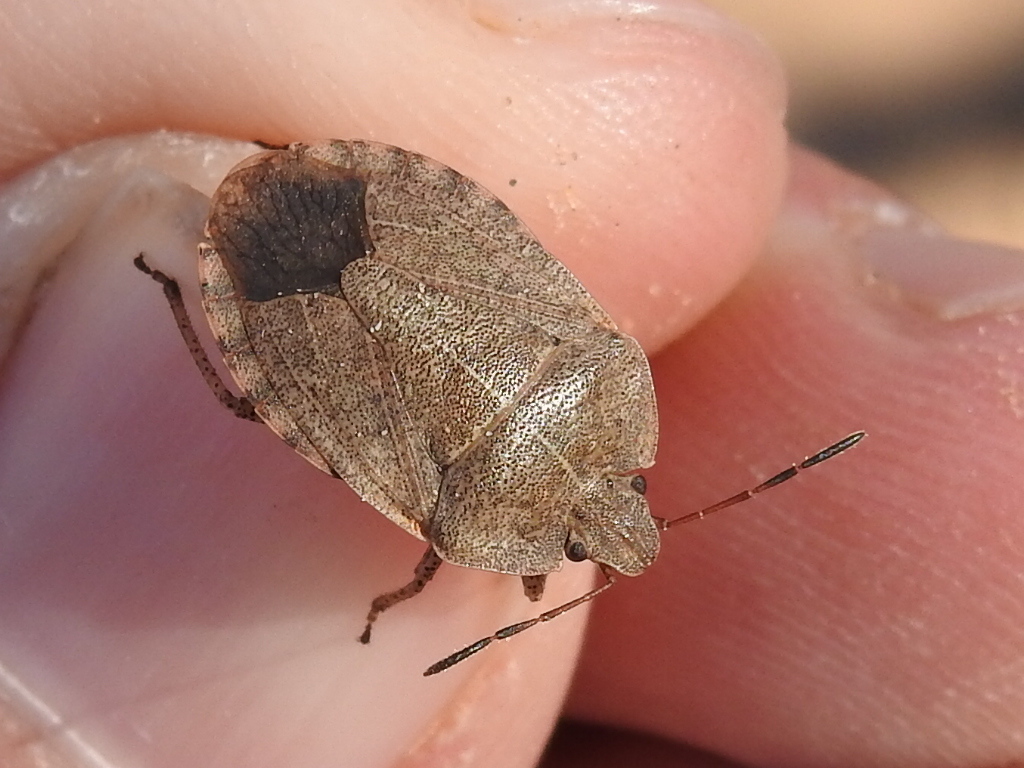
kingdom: Animalia
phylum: Arthropoda
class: Insecta
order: Hemiptera
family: Pentatomidae
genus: Menecles
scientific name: Menecles insertus
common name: Elf shoe stink bug
